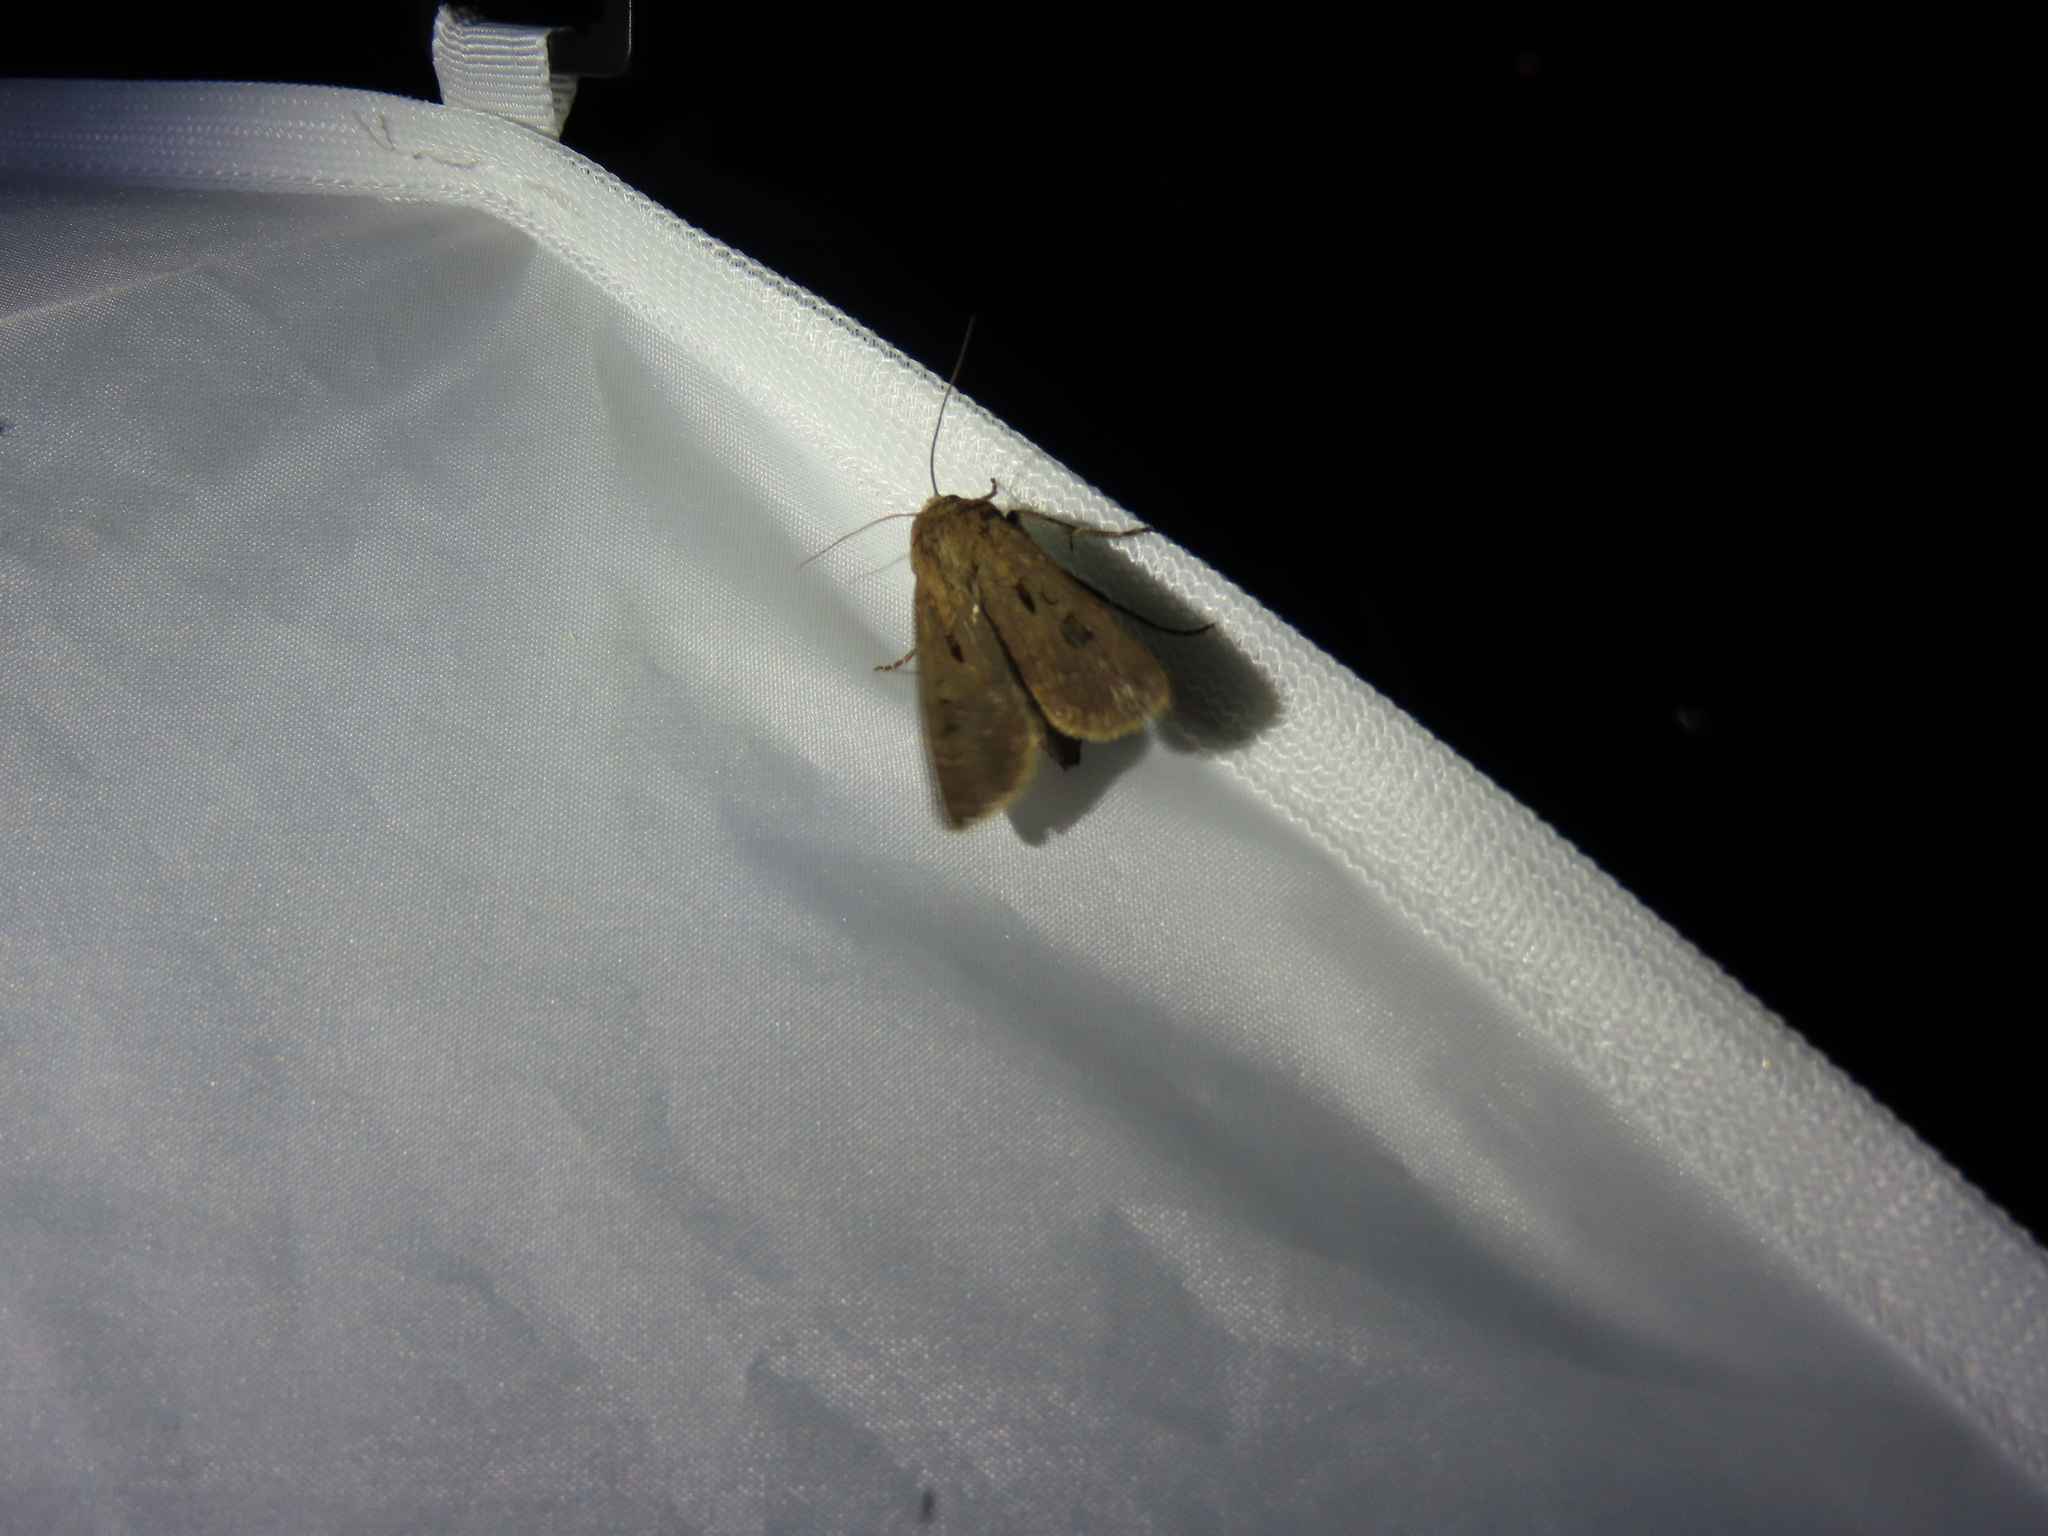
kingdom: Animalia
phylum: Arthropoda
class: Insecta
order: Lepidoptera
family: Noctuidae
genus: Agrotis
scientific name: Agrotis exclamationis
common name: Heart and dart
